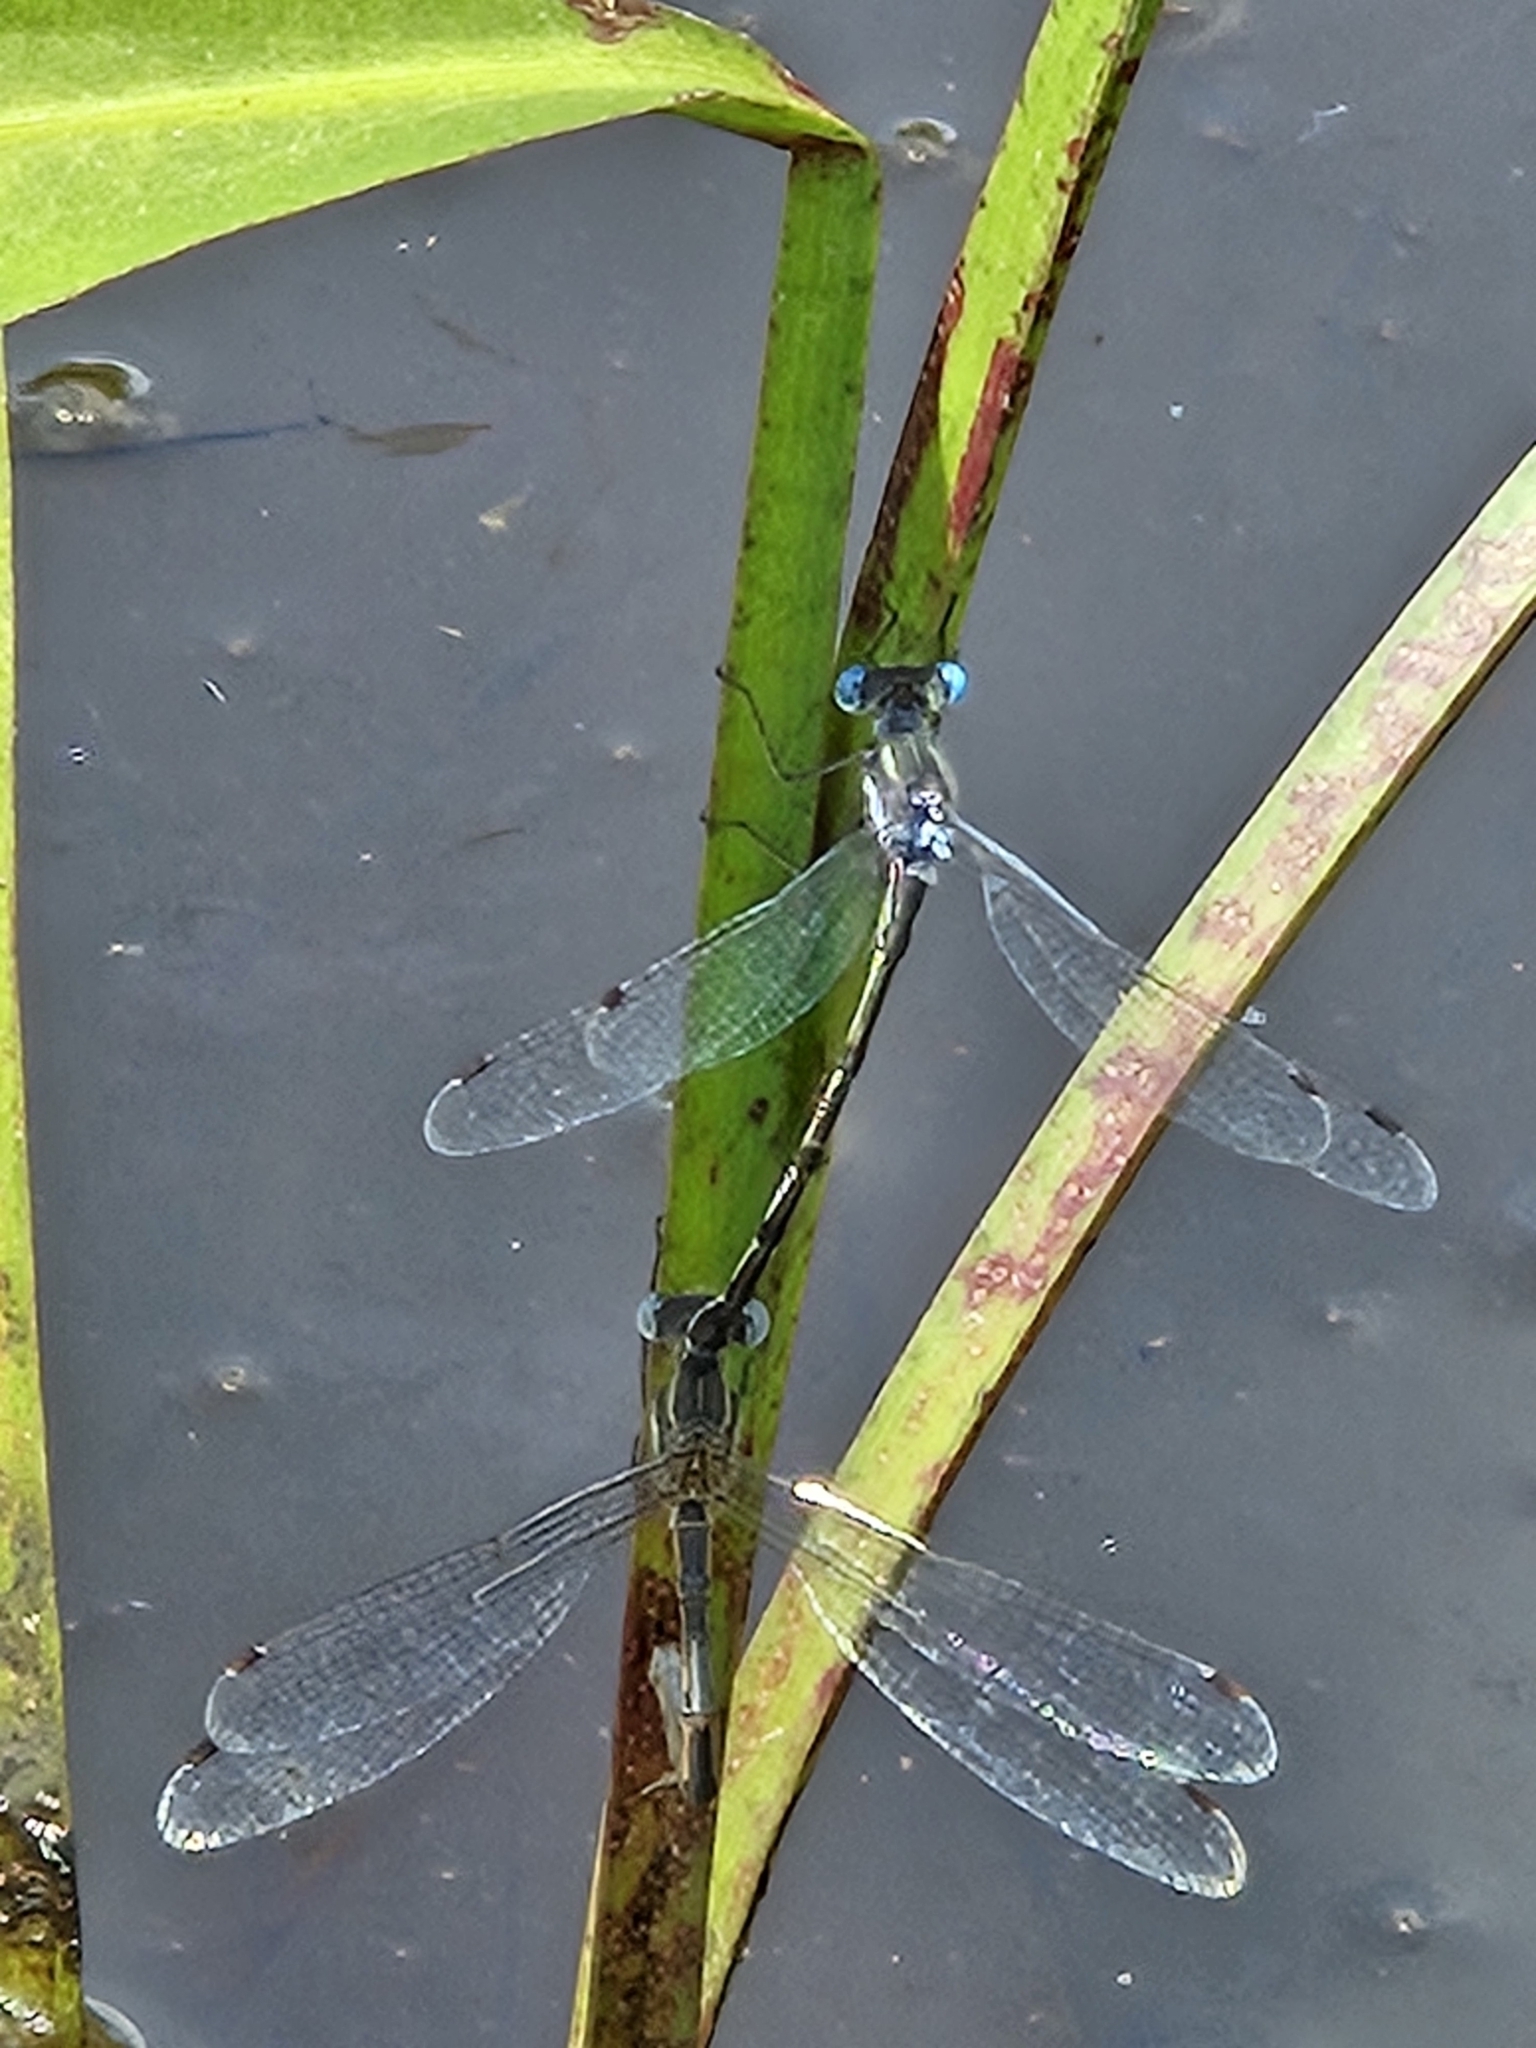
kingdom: Animalia
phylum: Arthropoda
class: Insecta
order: Odonata
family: Lestidae
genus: Lestes
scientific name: Lestes australis
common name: Southern spreadwing
